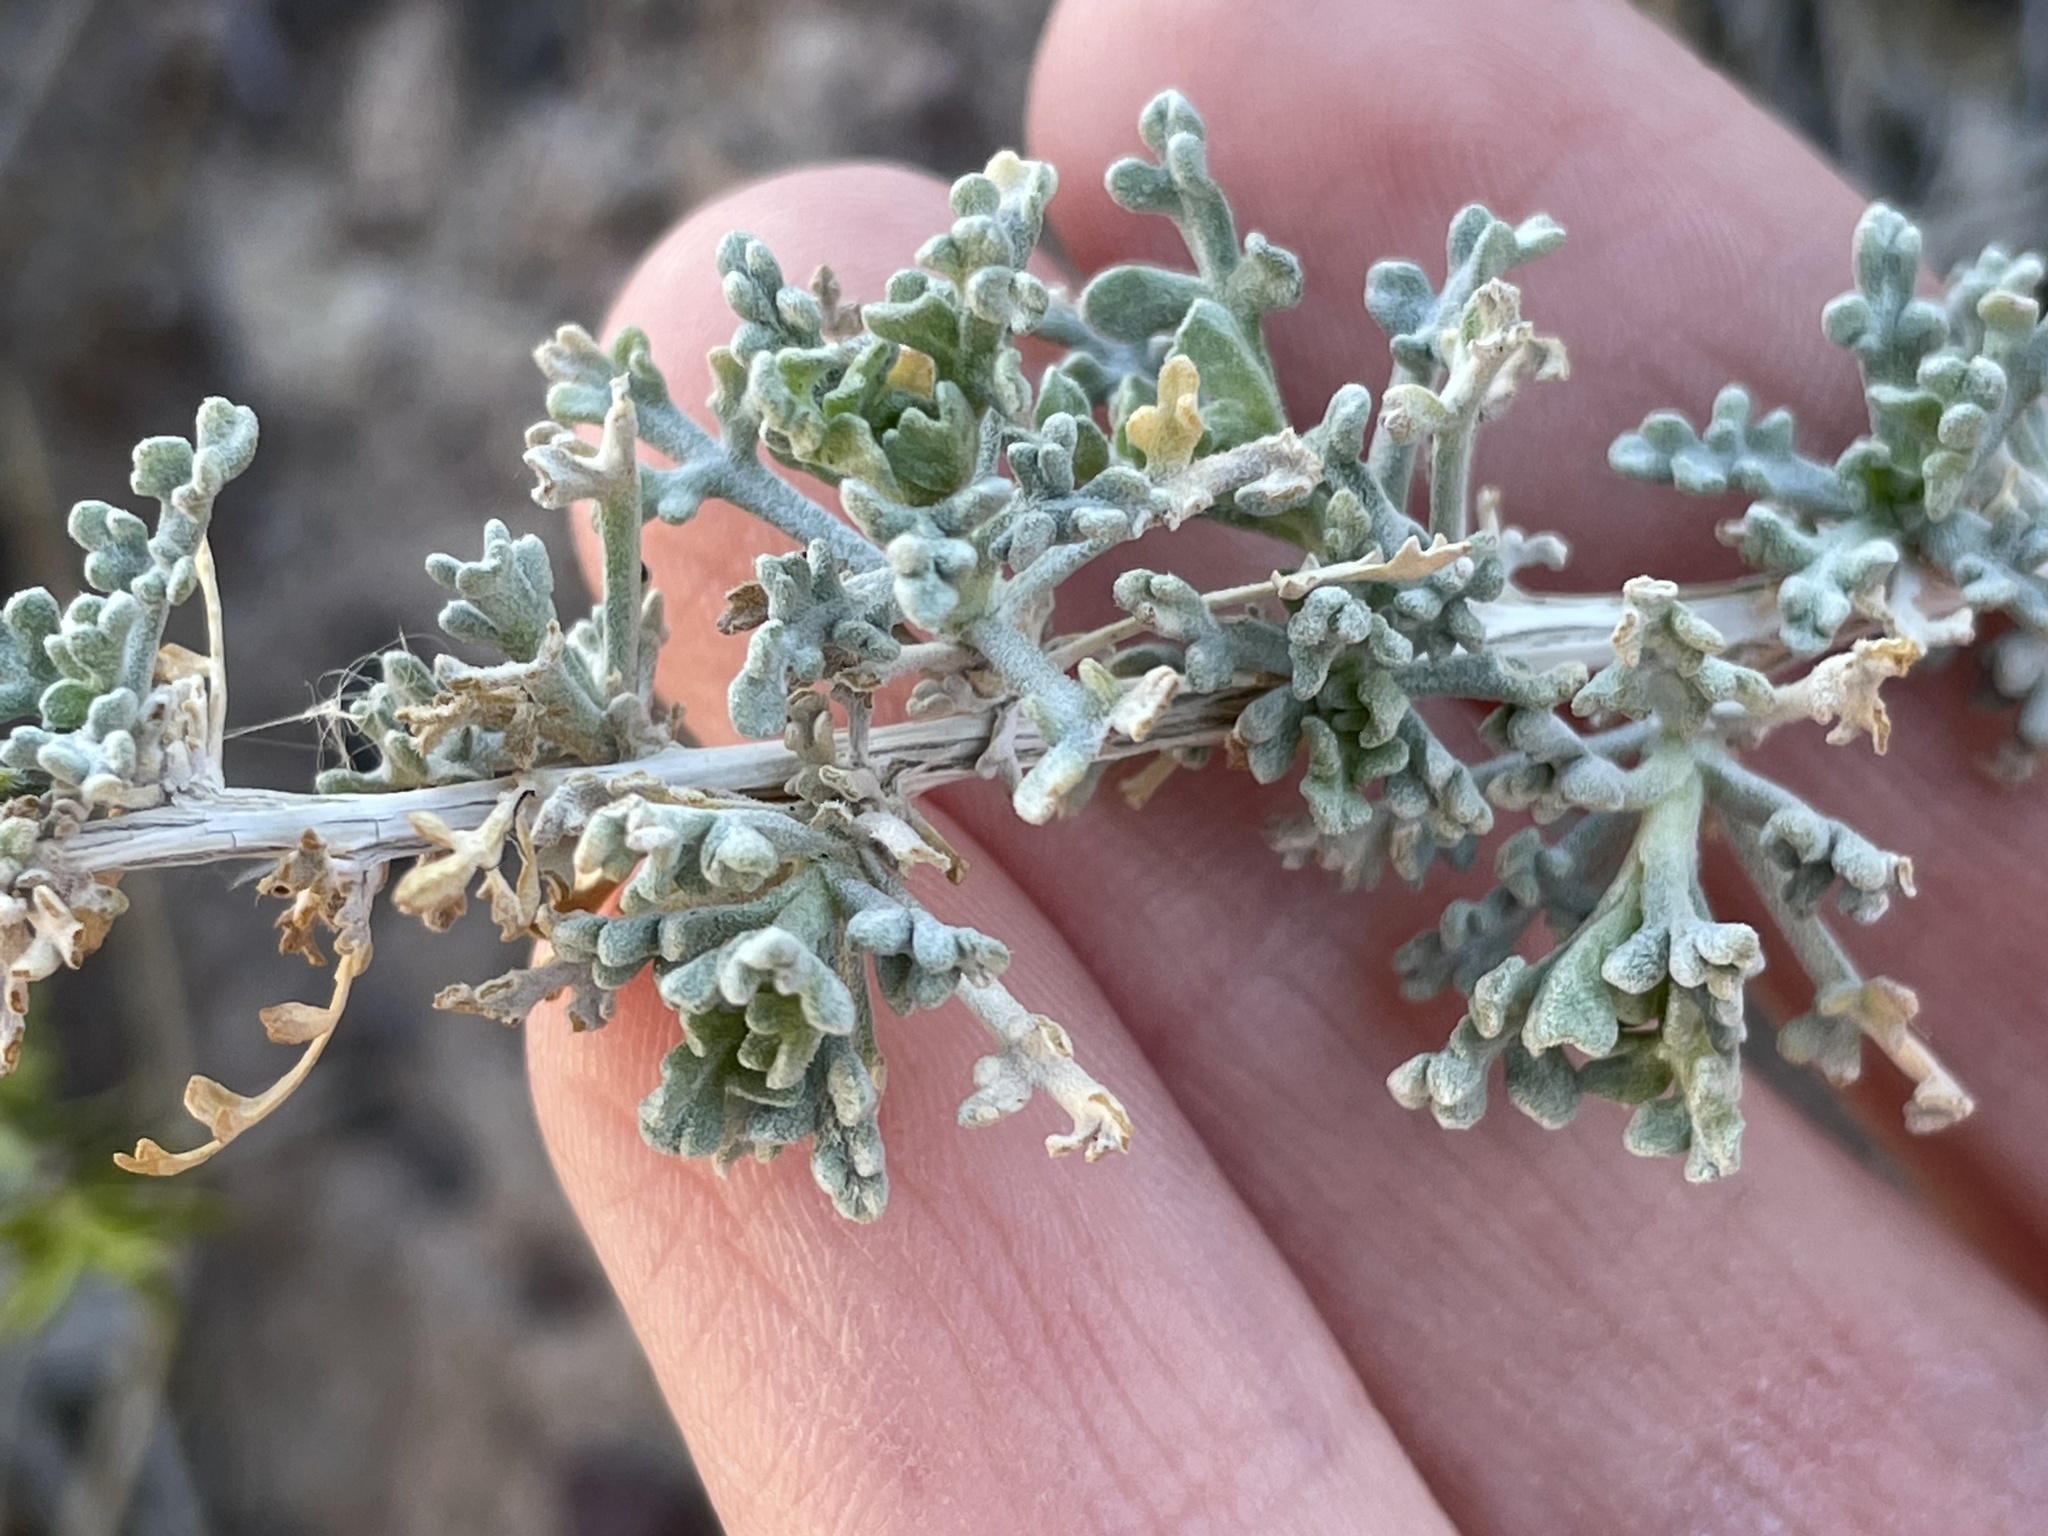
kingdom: Plantae
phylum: Tracheophyta
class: Magnoliopsida
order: Asterales
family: Asteraceae
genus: Ambrosia
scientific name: Ambrosia dumosa
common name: Bur-sage
